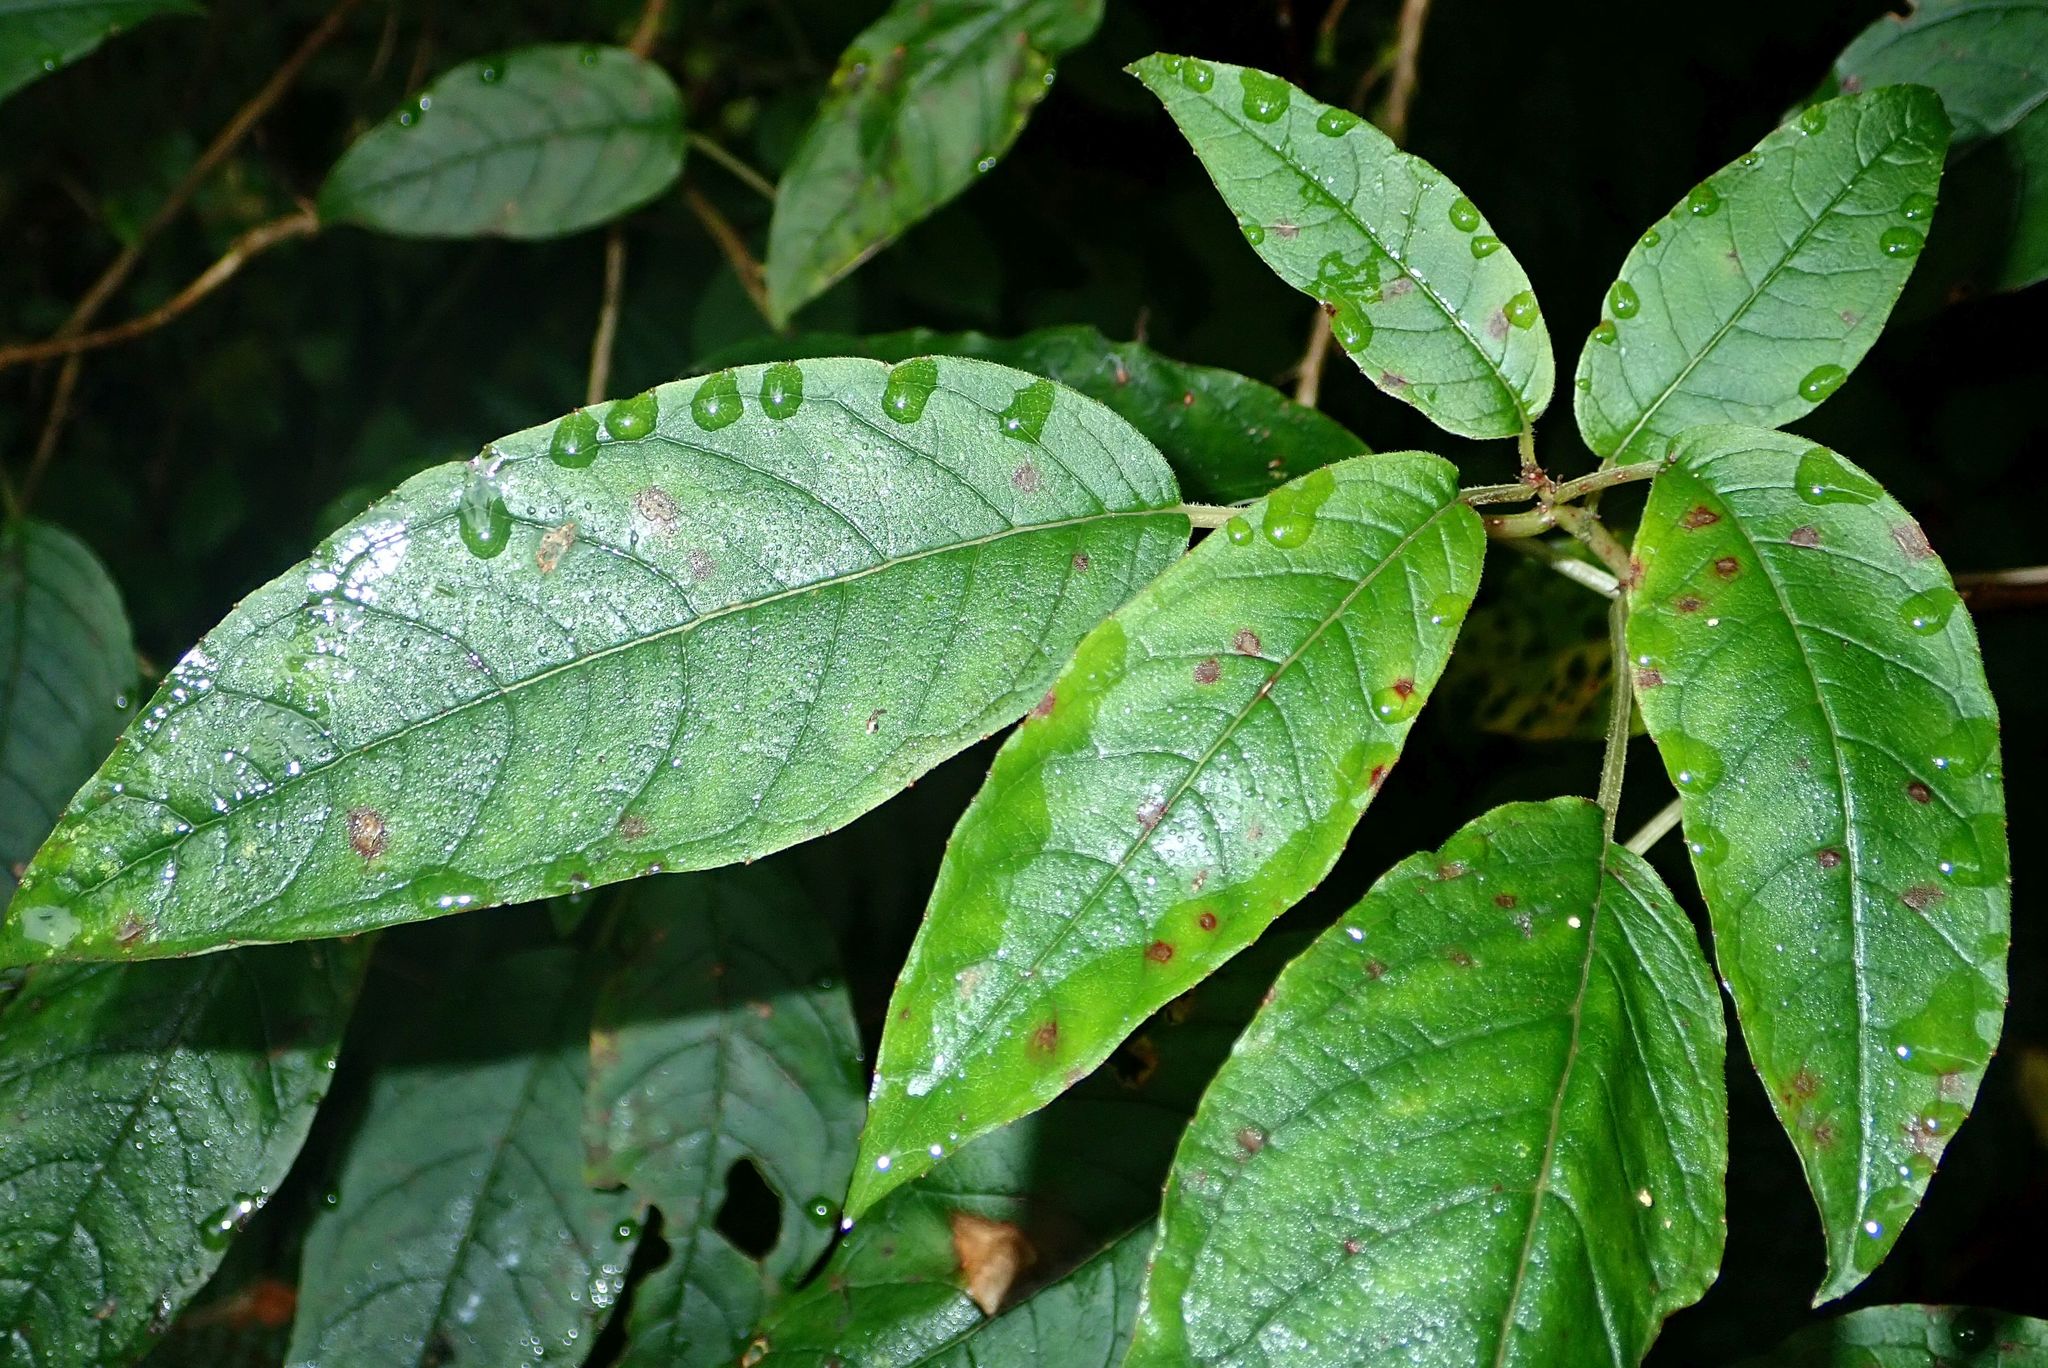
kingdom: Plantae
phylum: Tracheophyta
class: Magnoliopsida
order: Myrtales
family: Onagraceae
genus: Fuchsia
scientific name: Fuchsia excorticata
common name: Tree fuchsia
